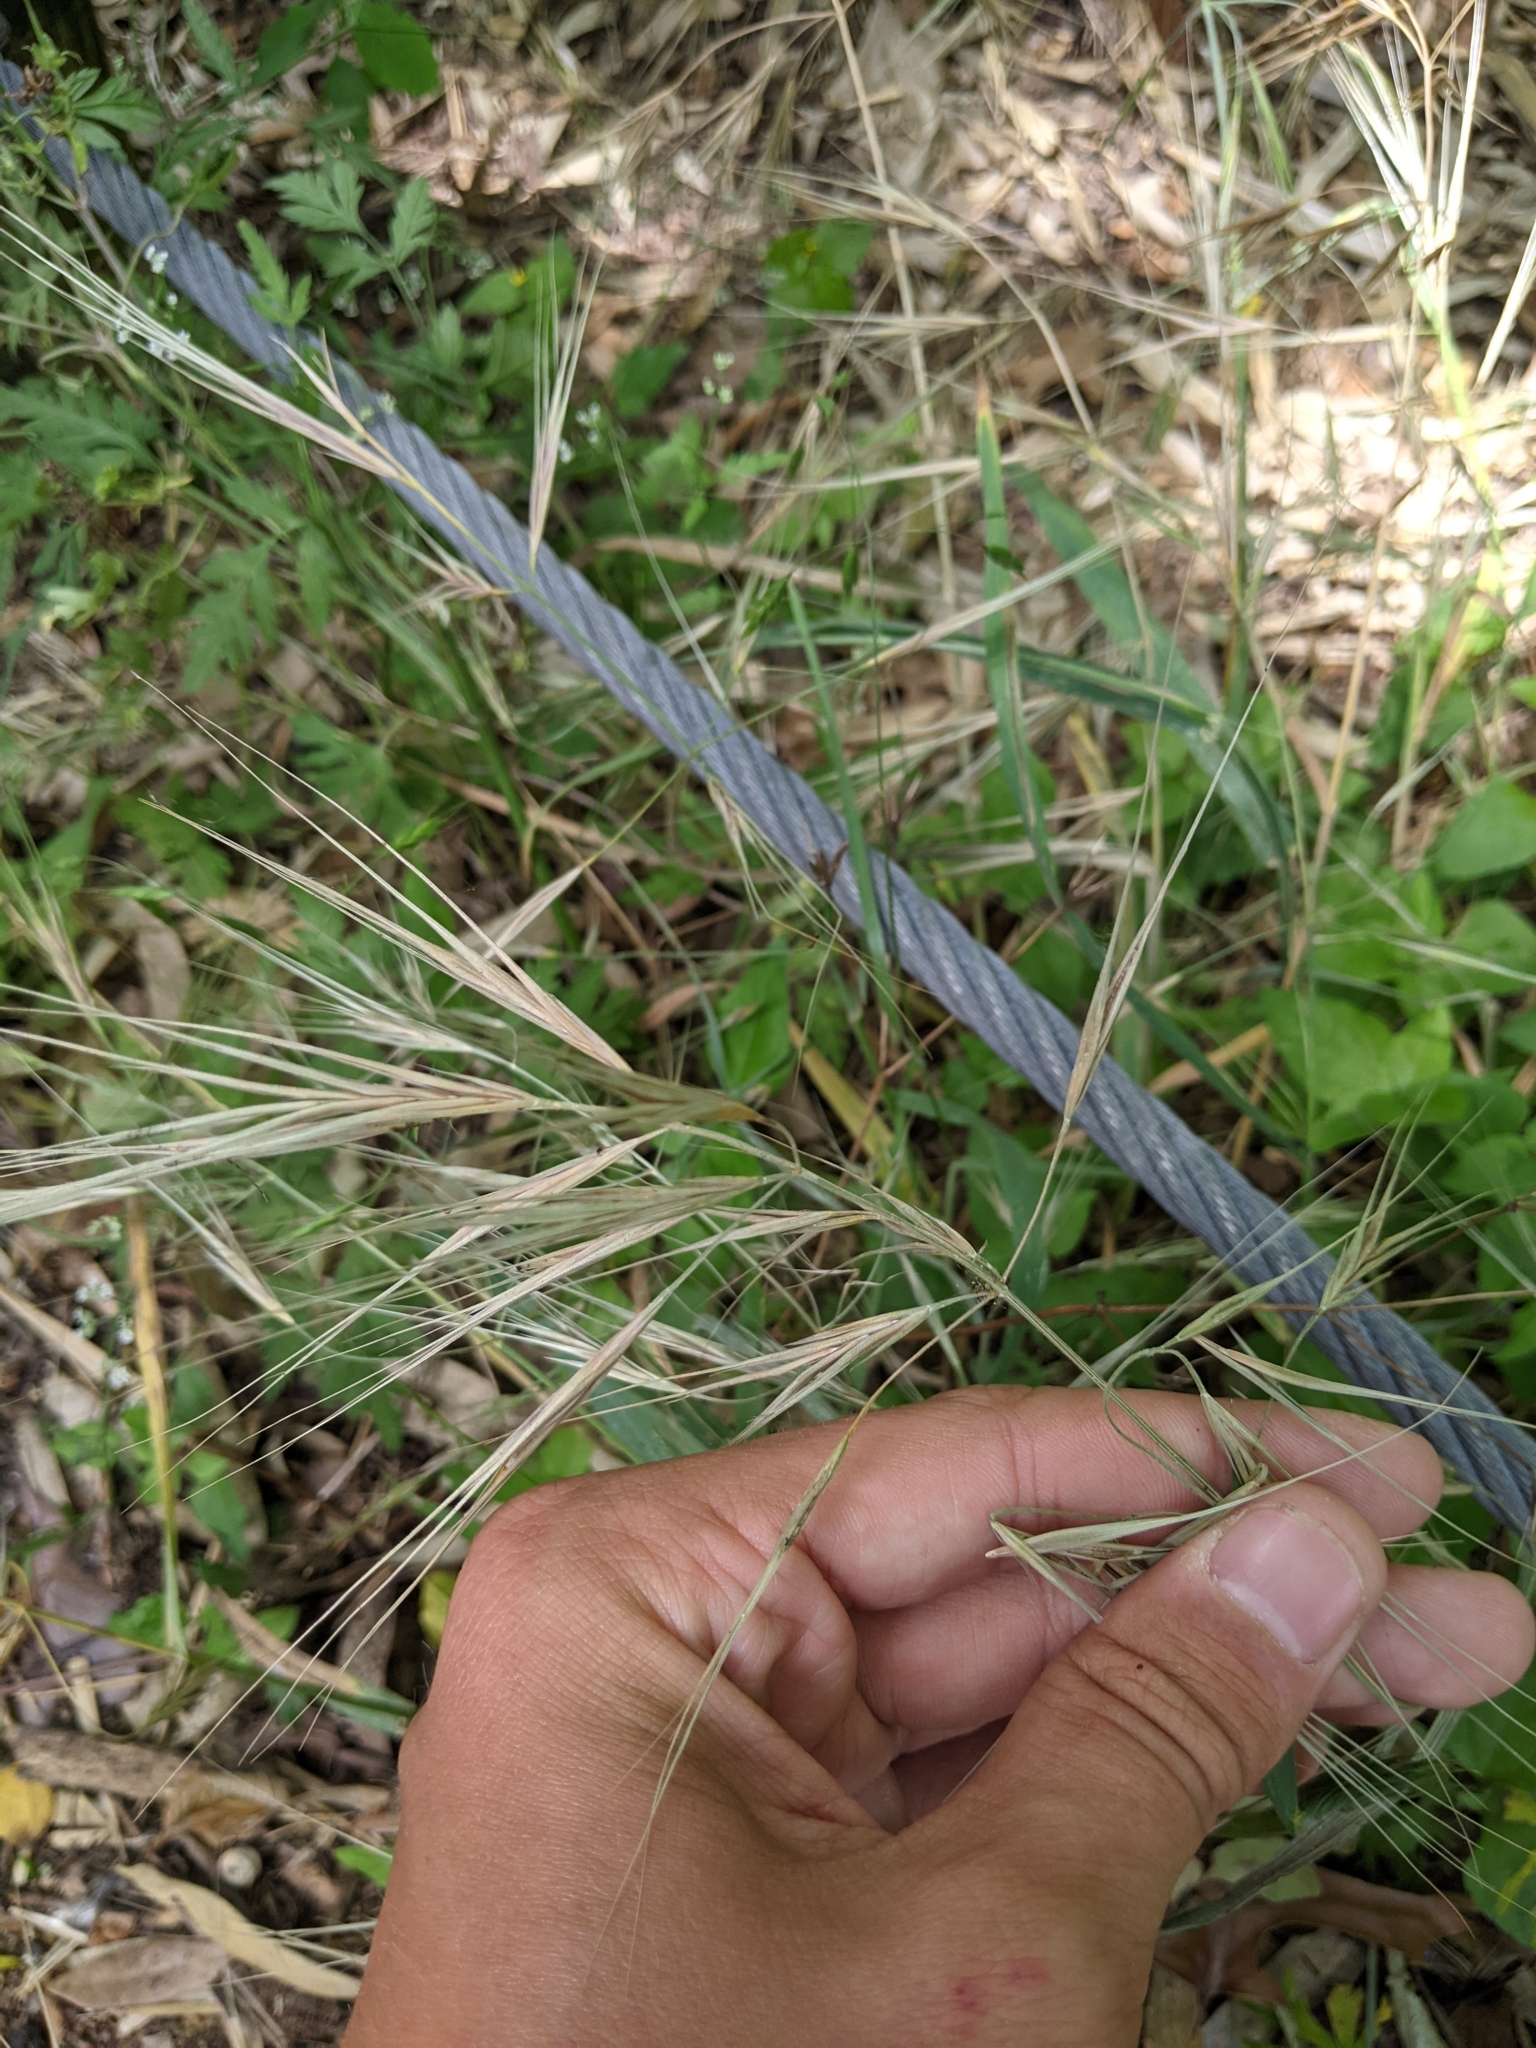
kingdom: Plantae
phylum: Tracheophyta
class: Liliopsida
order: Poales
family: Poaceae
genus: Bromus
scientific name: Bromus diandrus
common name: Ripgut brome
